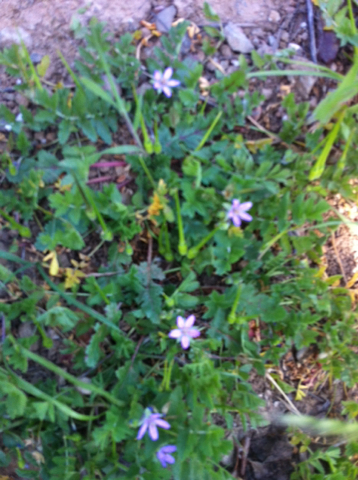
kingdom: Plantae
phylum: Tracheophyta
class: Magnoliopsida
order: Geraniales
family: Geraniaceae
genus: Erodium
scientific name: Erodium cicutarium
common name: Common stork's-bill
